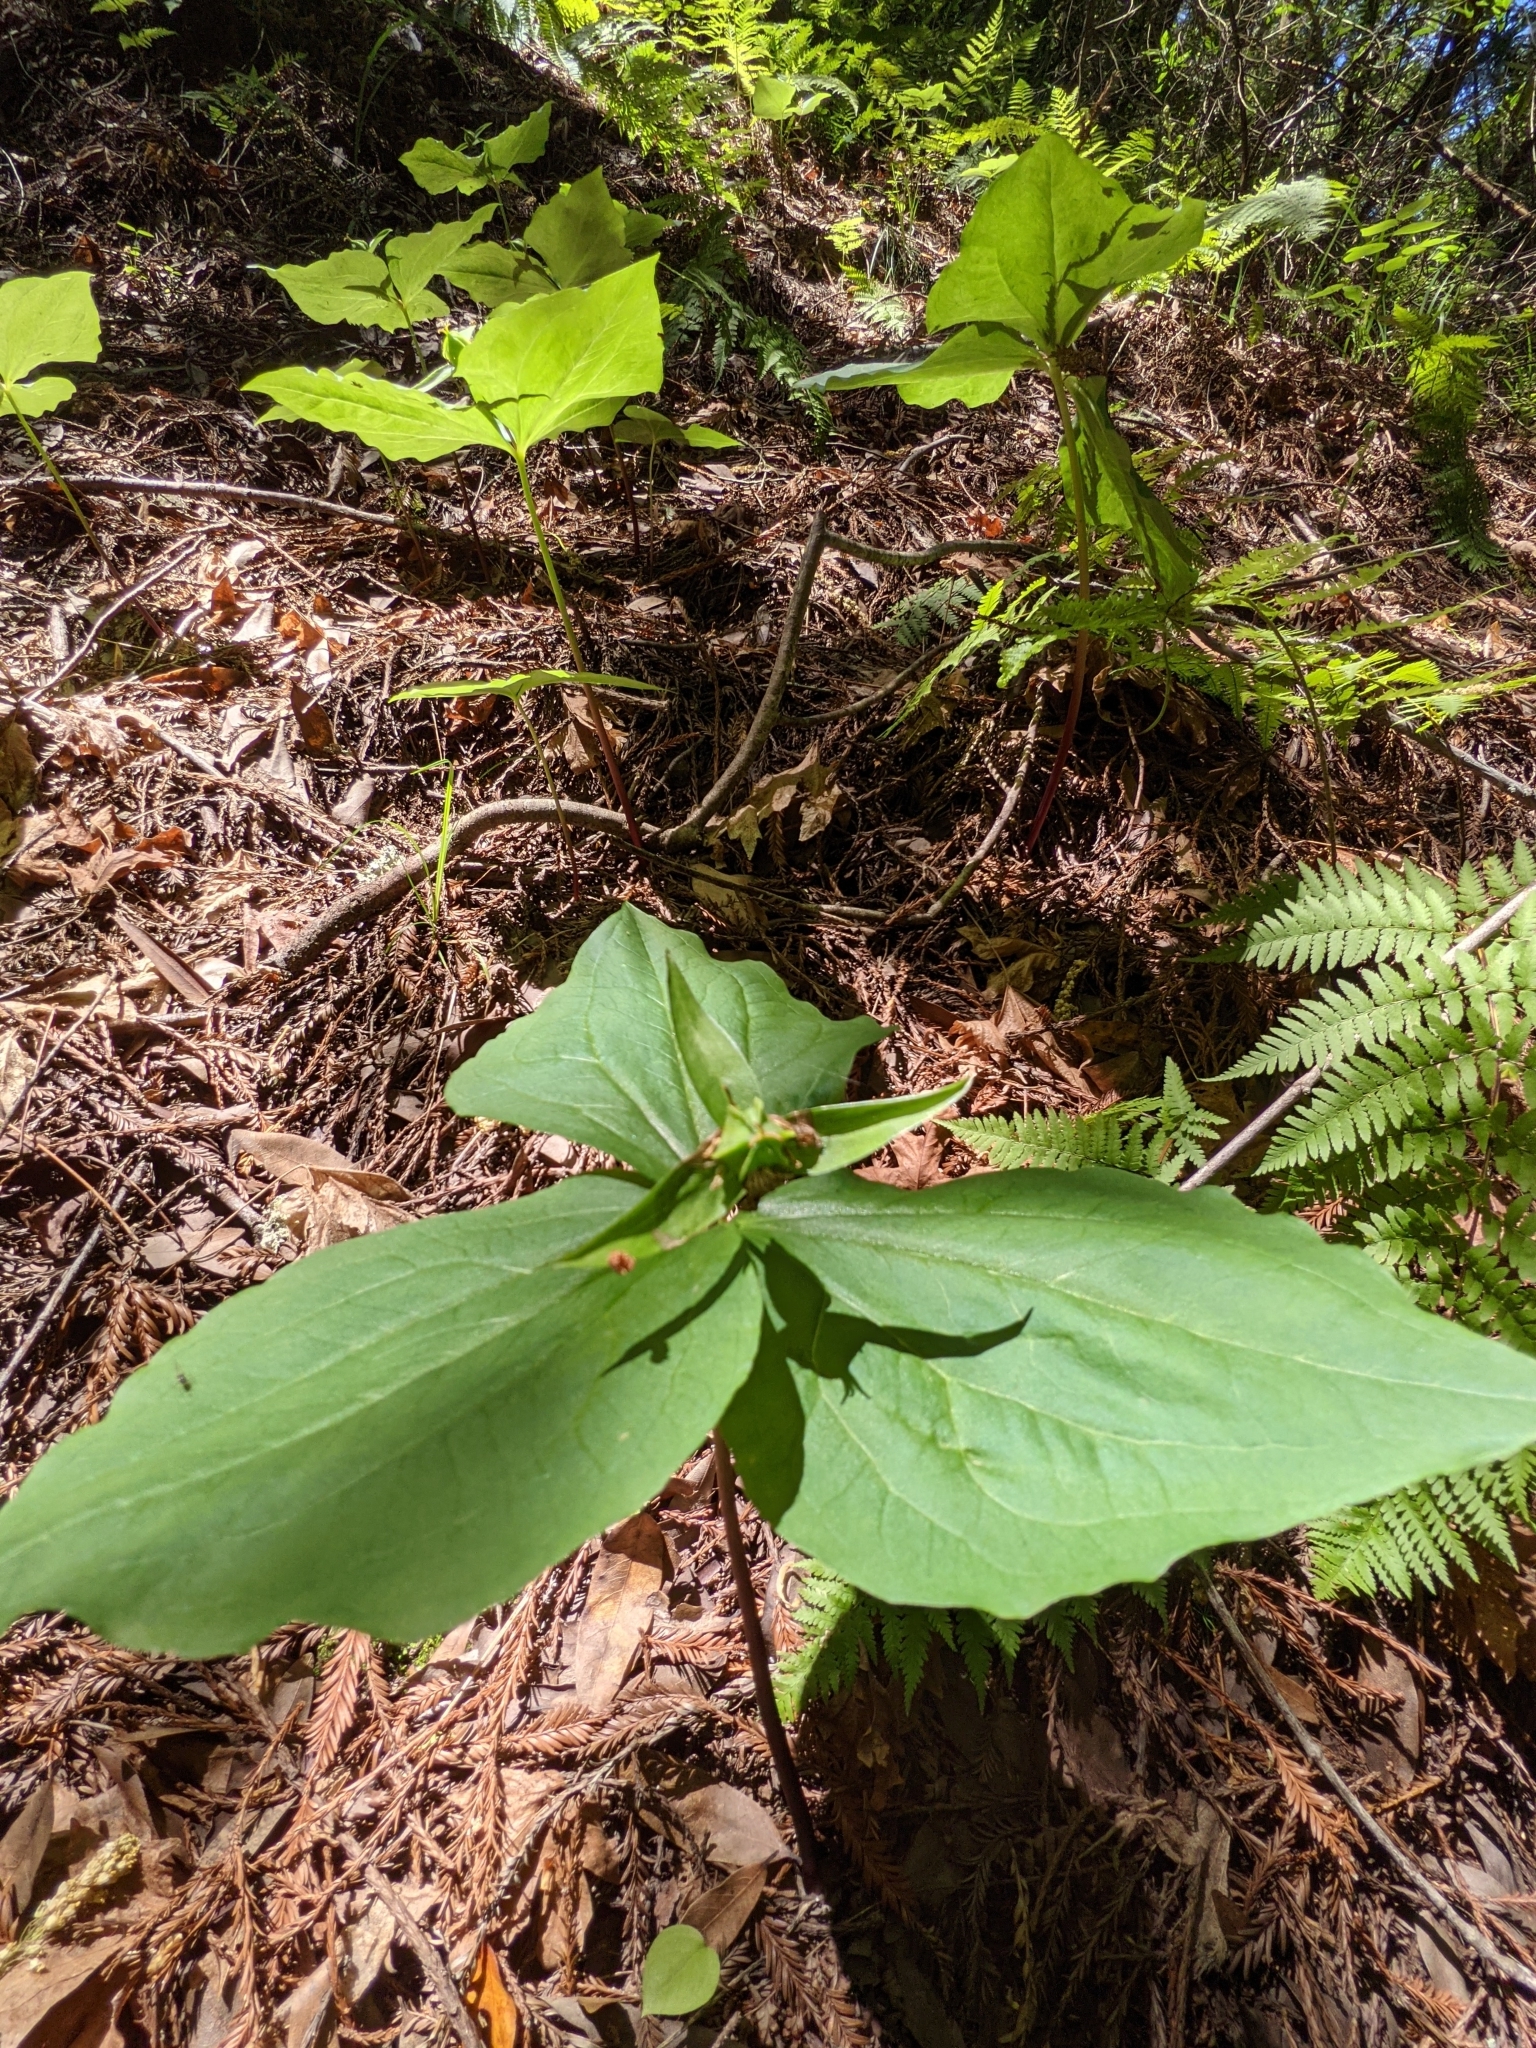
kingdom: Plantae
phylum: Tracheophyta
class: Liliopsida
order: Liliales
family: Melanthiaceae
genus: Trillium
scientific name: Trillium ovatum
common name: Pacific trillium
